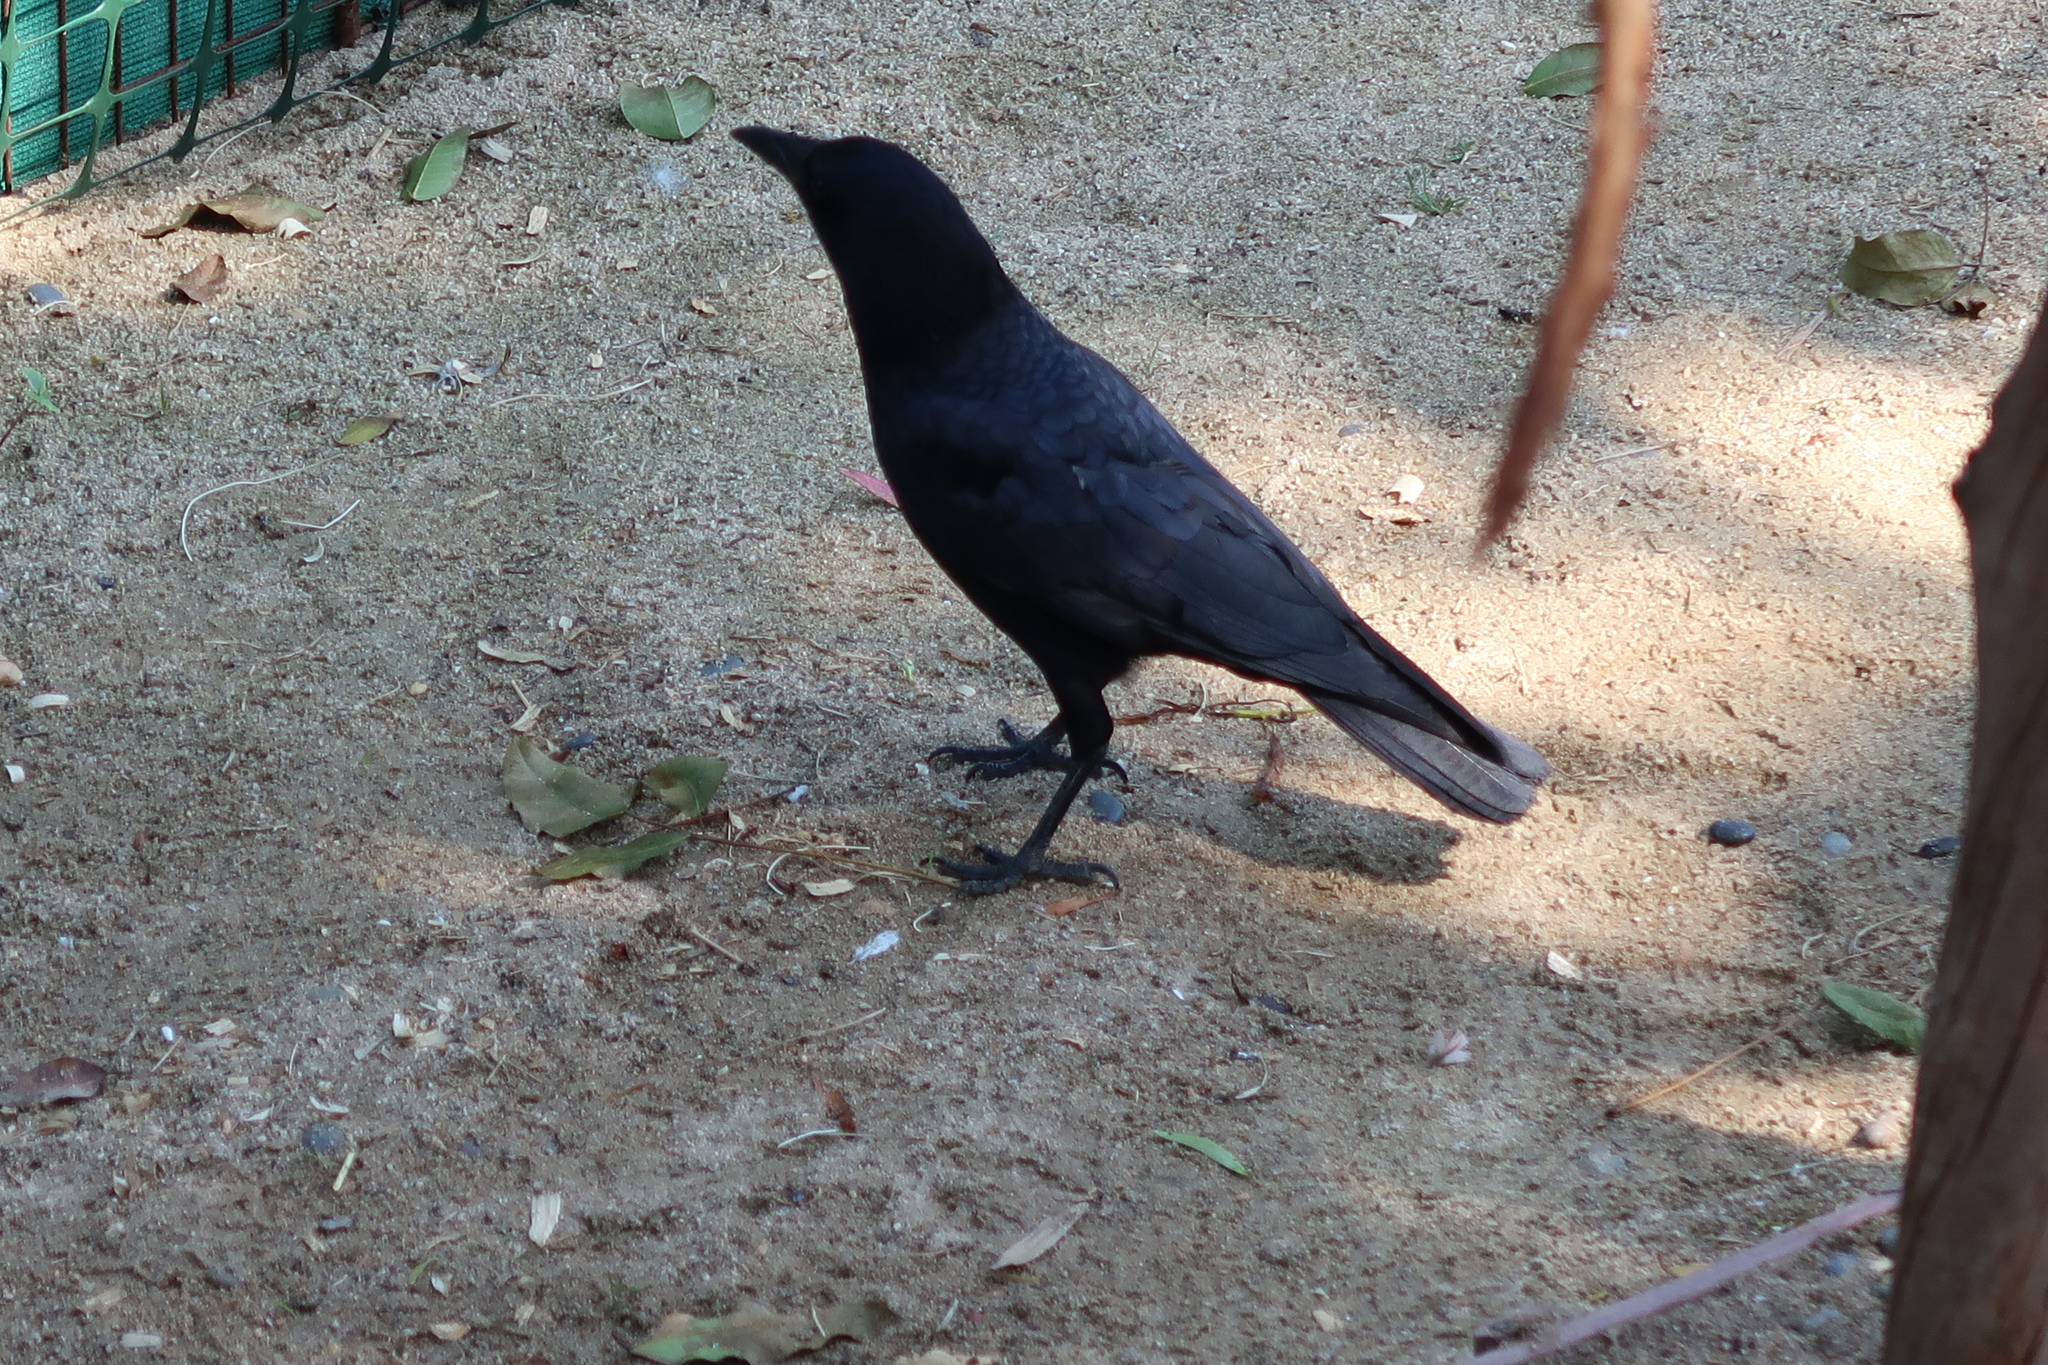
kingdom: Animalia
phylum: Chordata
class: Aves
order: Passeriformes
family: Corvidae
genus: Corvus
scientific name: Corvus brachyrhynchos
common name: American crow
